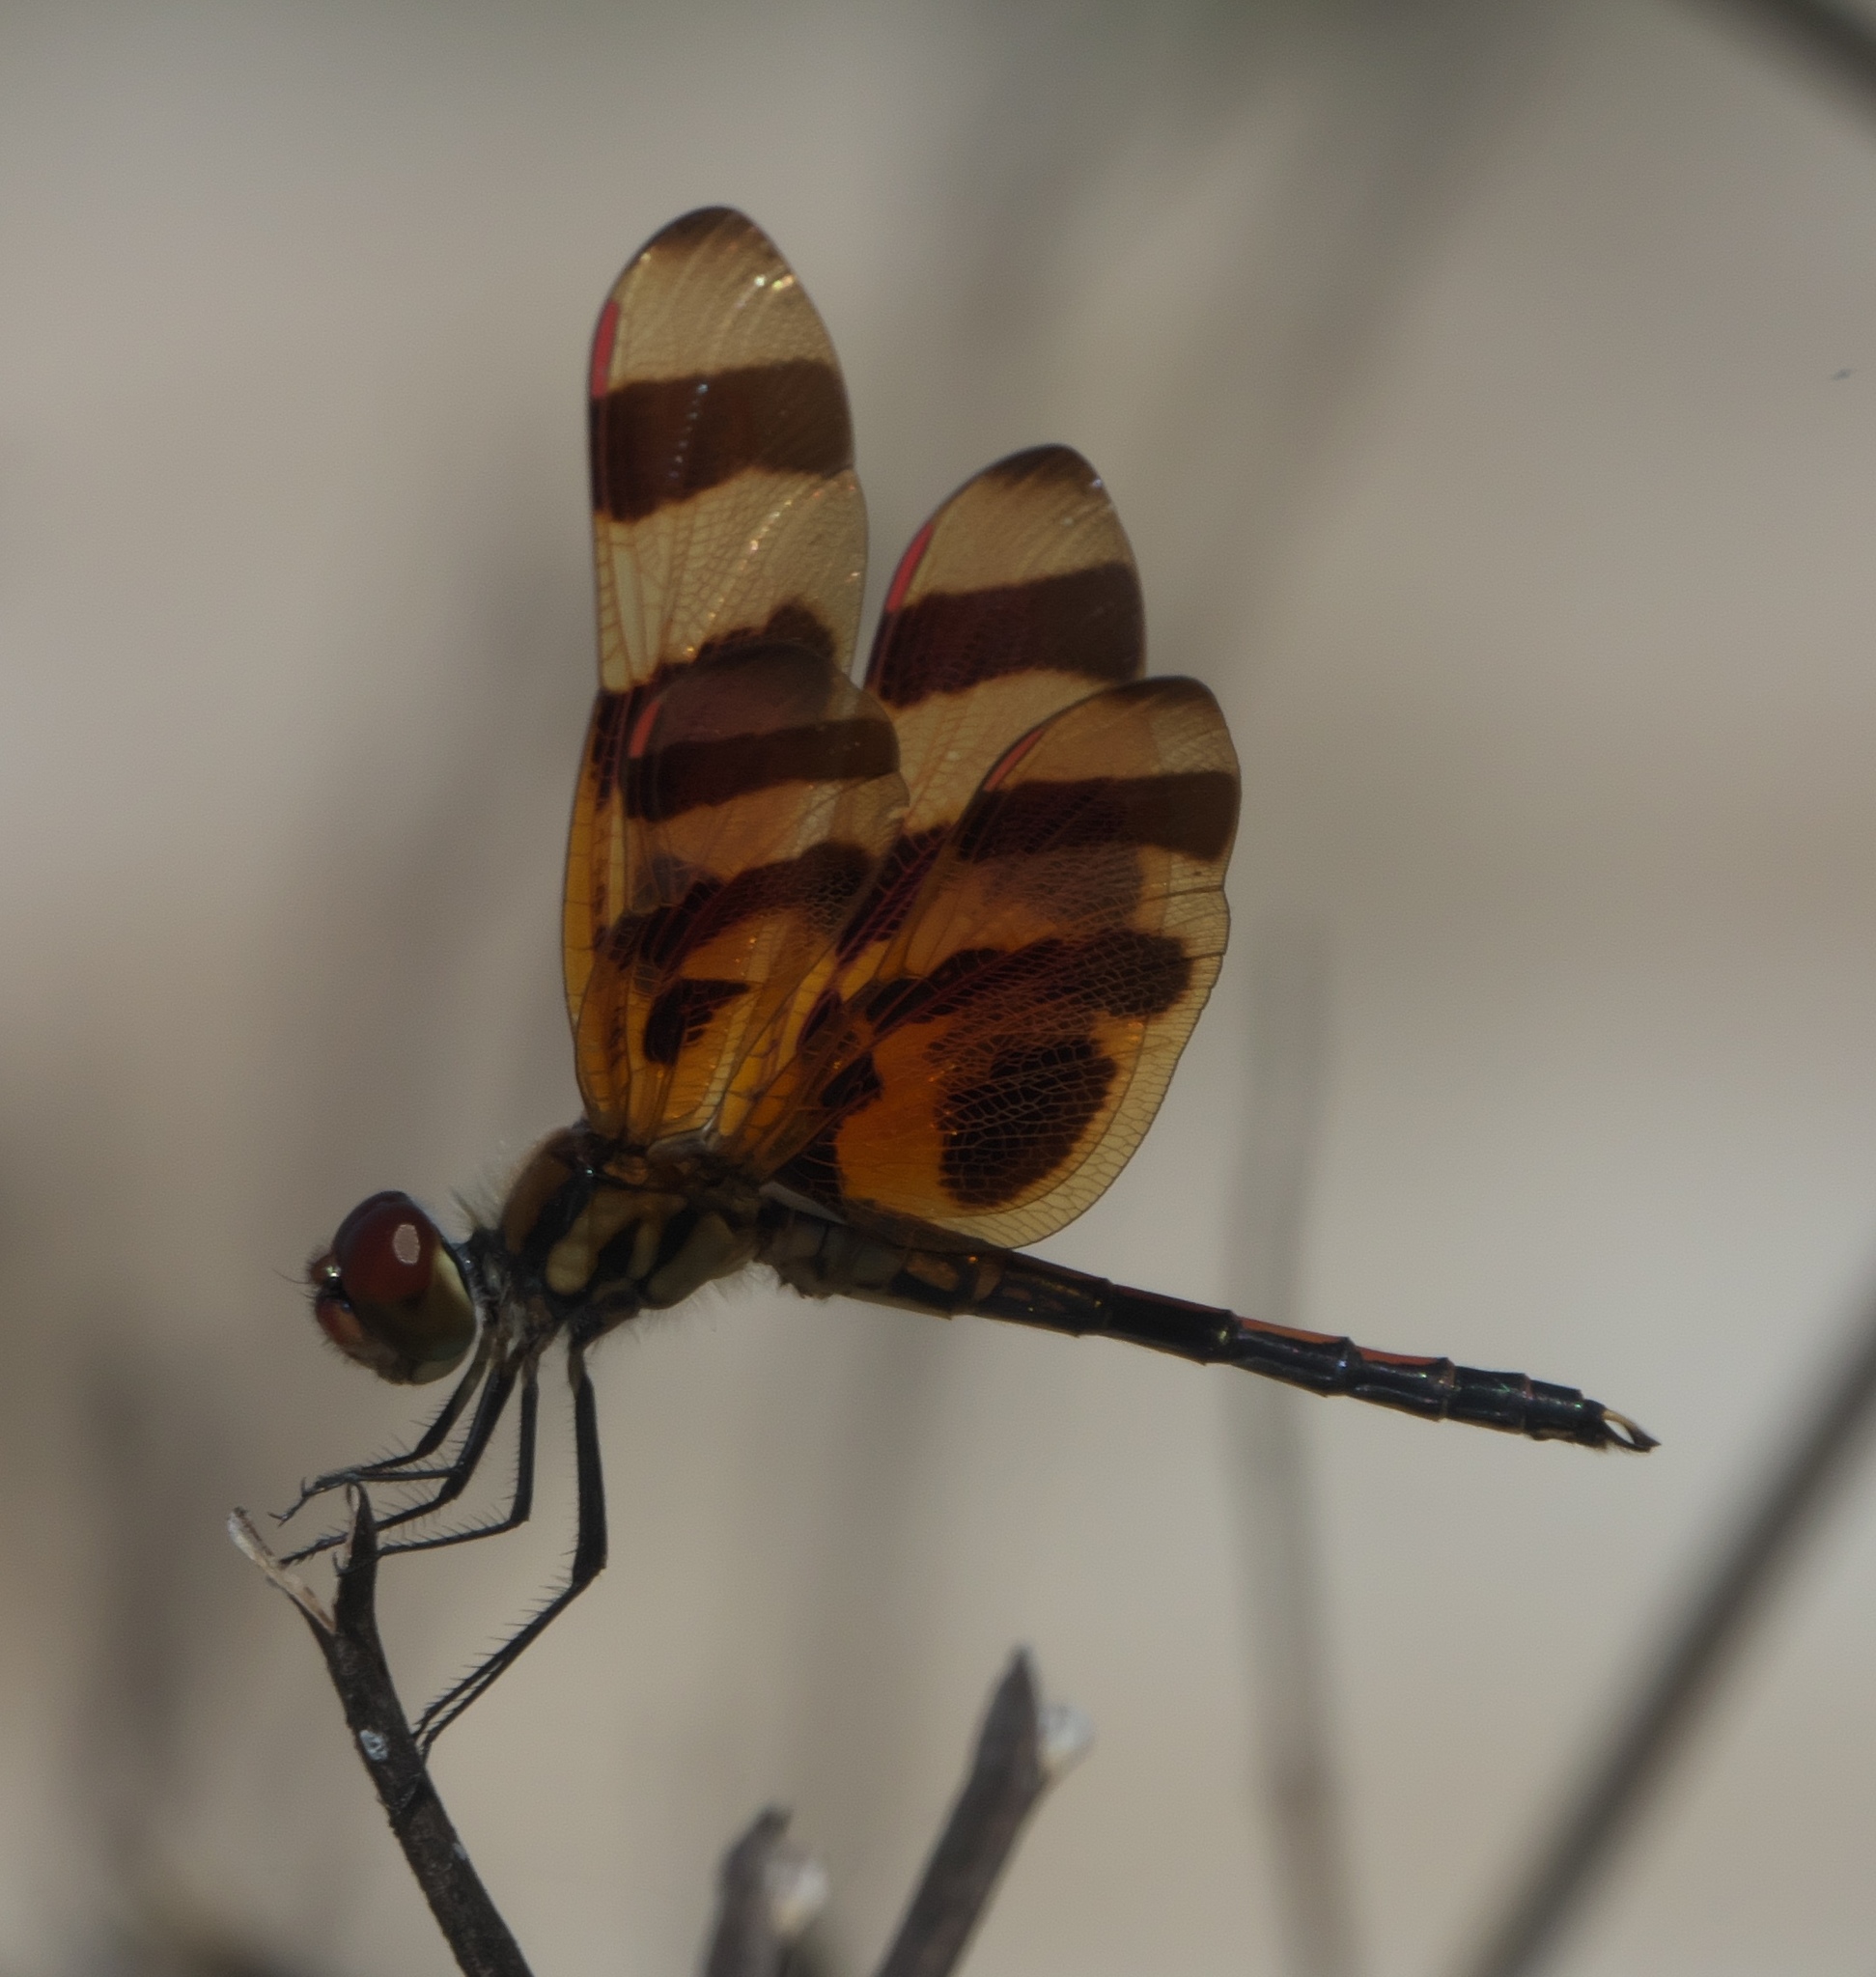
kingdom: Animalia
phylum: Arthropoda
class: Insecta
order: Odonata
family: Libellulidae
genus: Celithemis
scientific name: Celithemis eponina
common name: Halloween pennant
